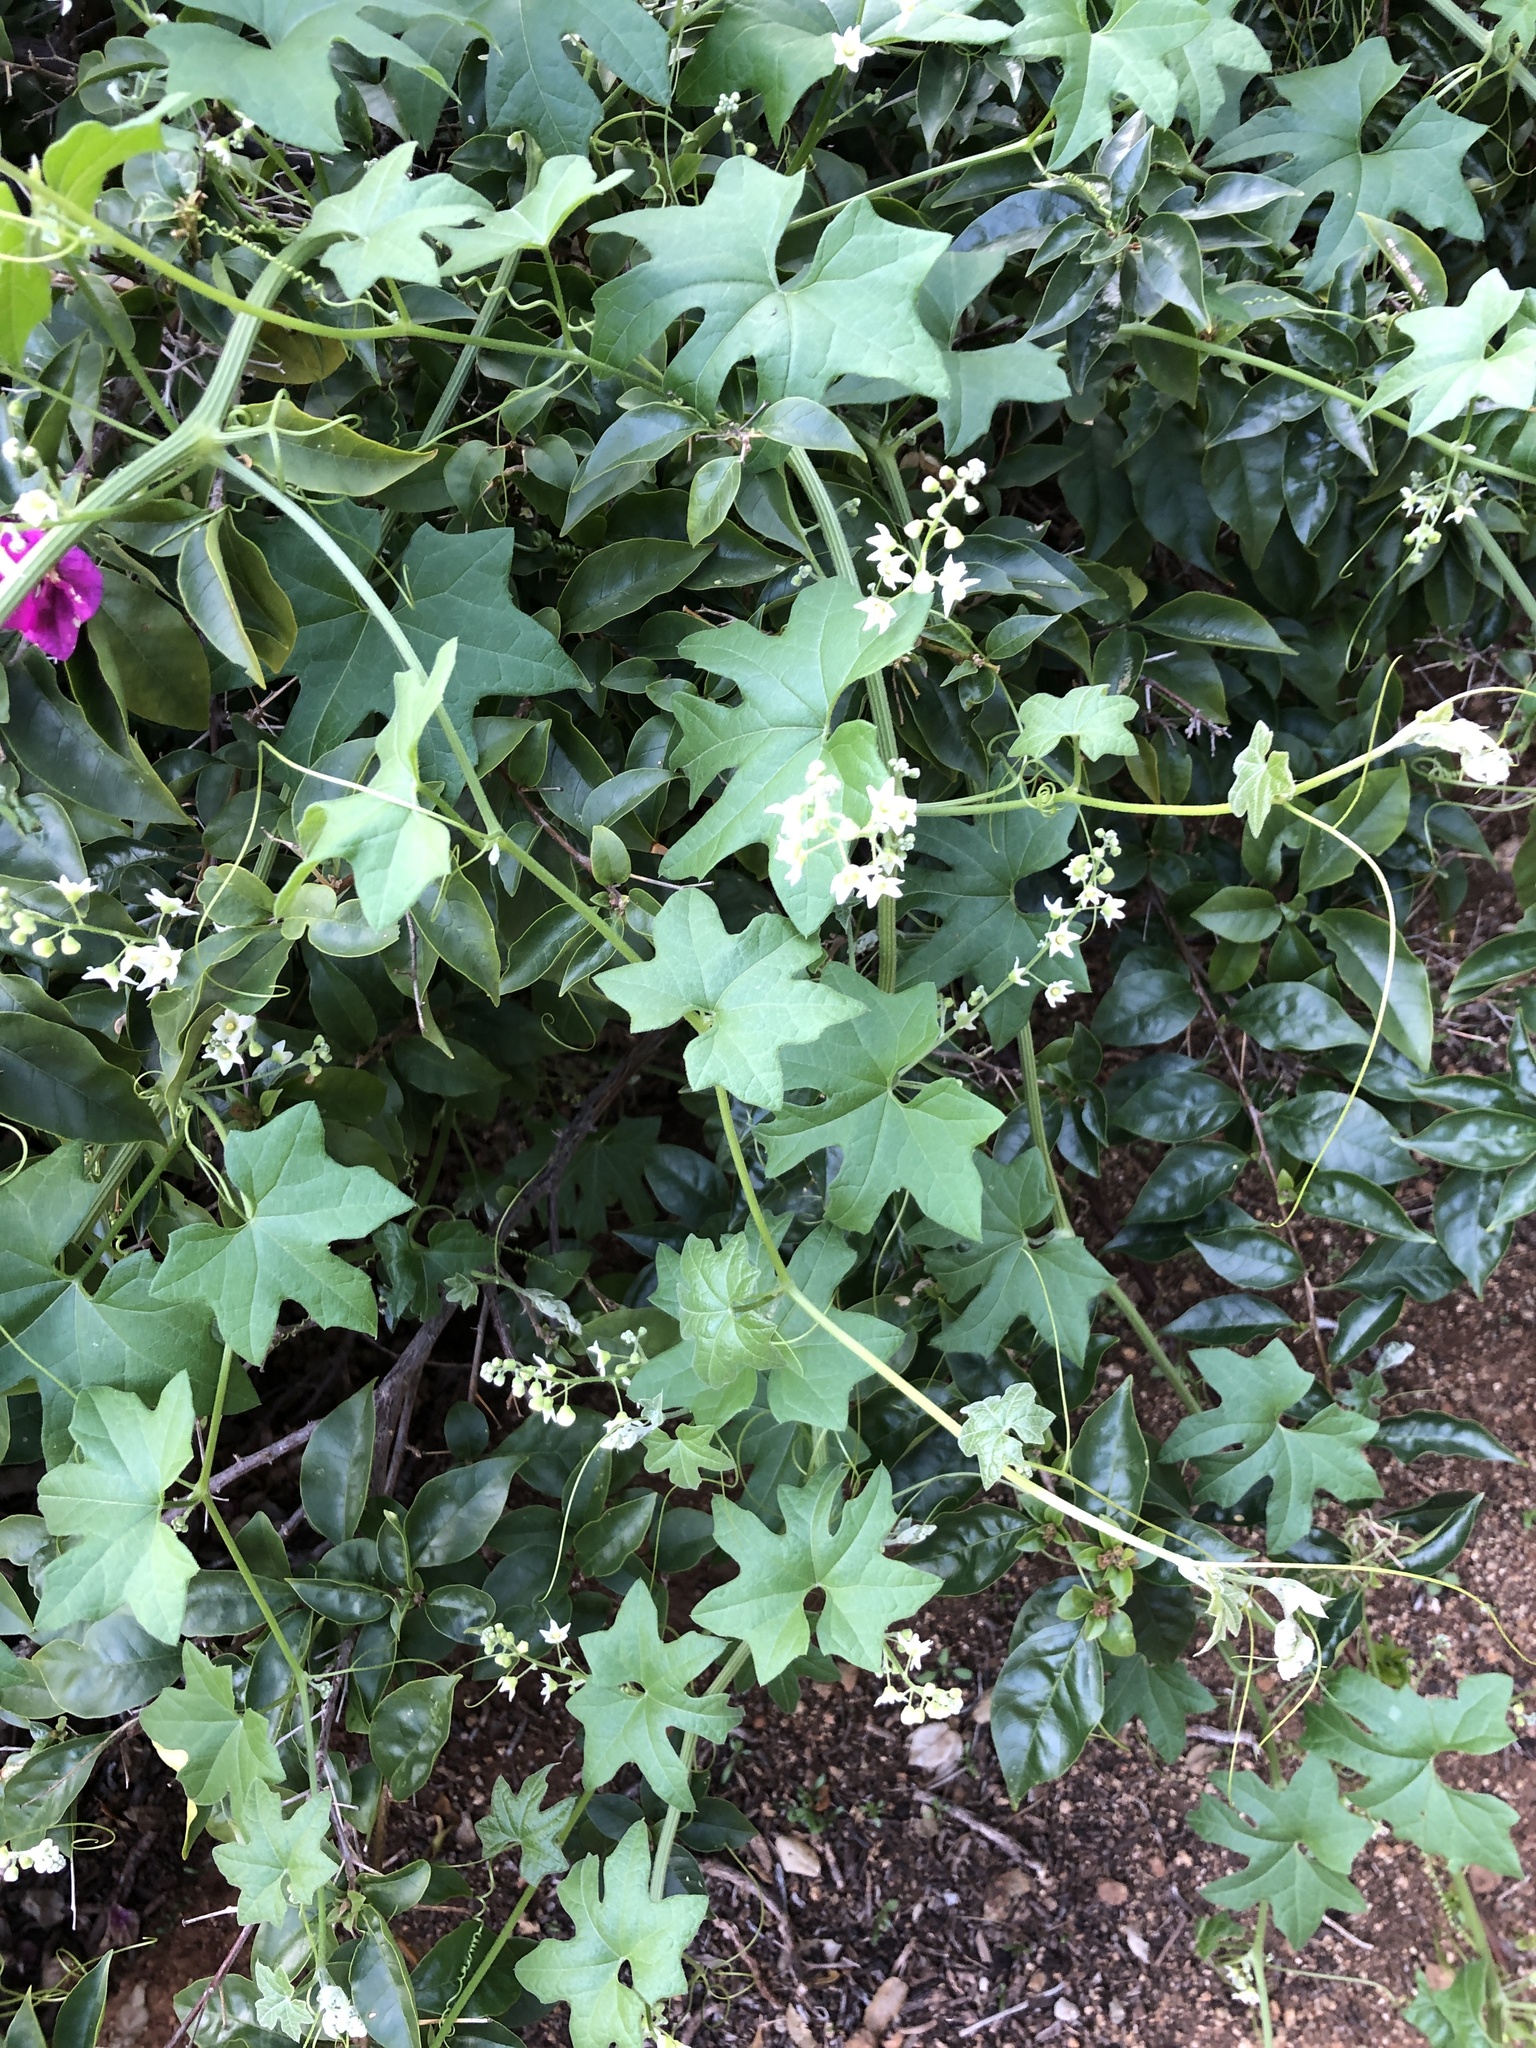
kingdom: Plantae
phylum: Tracheophyta
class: Magnoliopsida
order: Cucurbitales
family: Cucurbitaceae
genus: Marah
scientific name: Marah macrocarpa
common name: Cucamonga manroot
